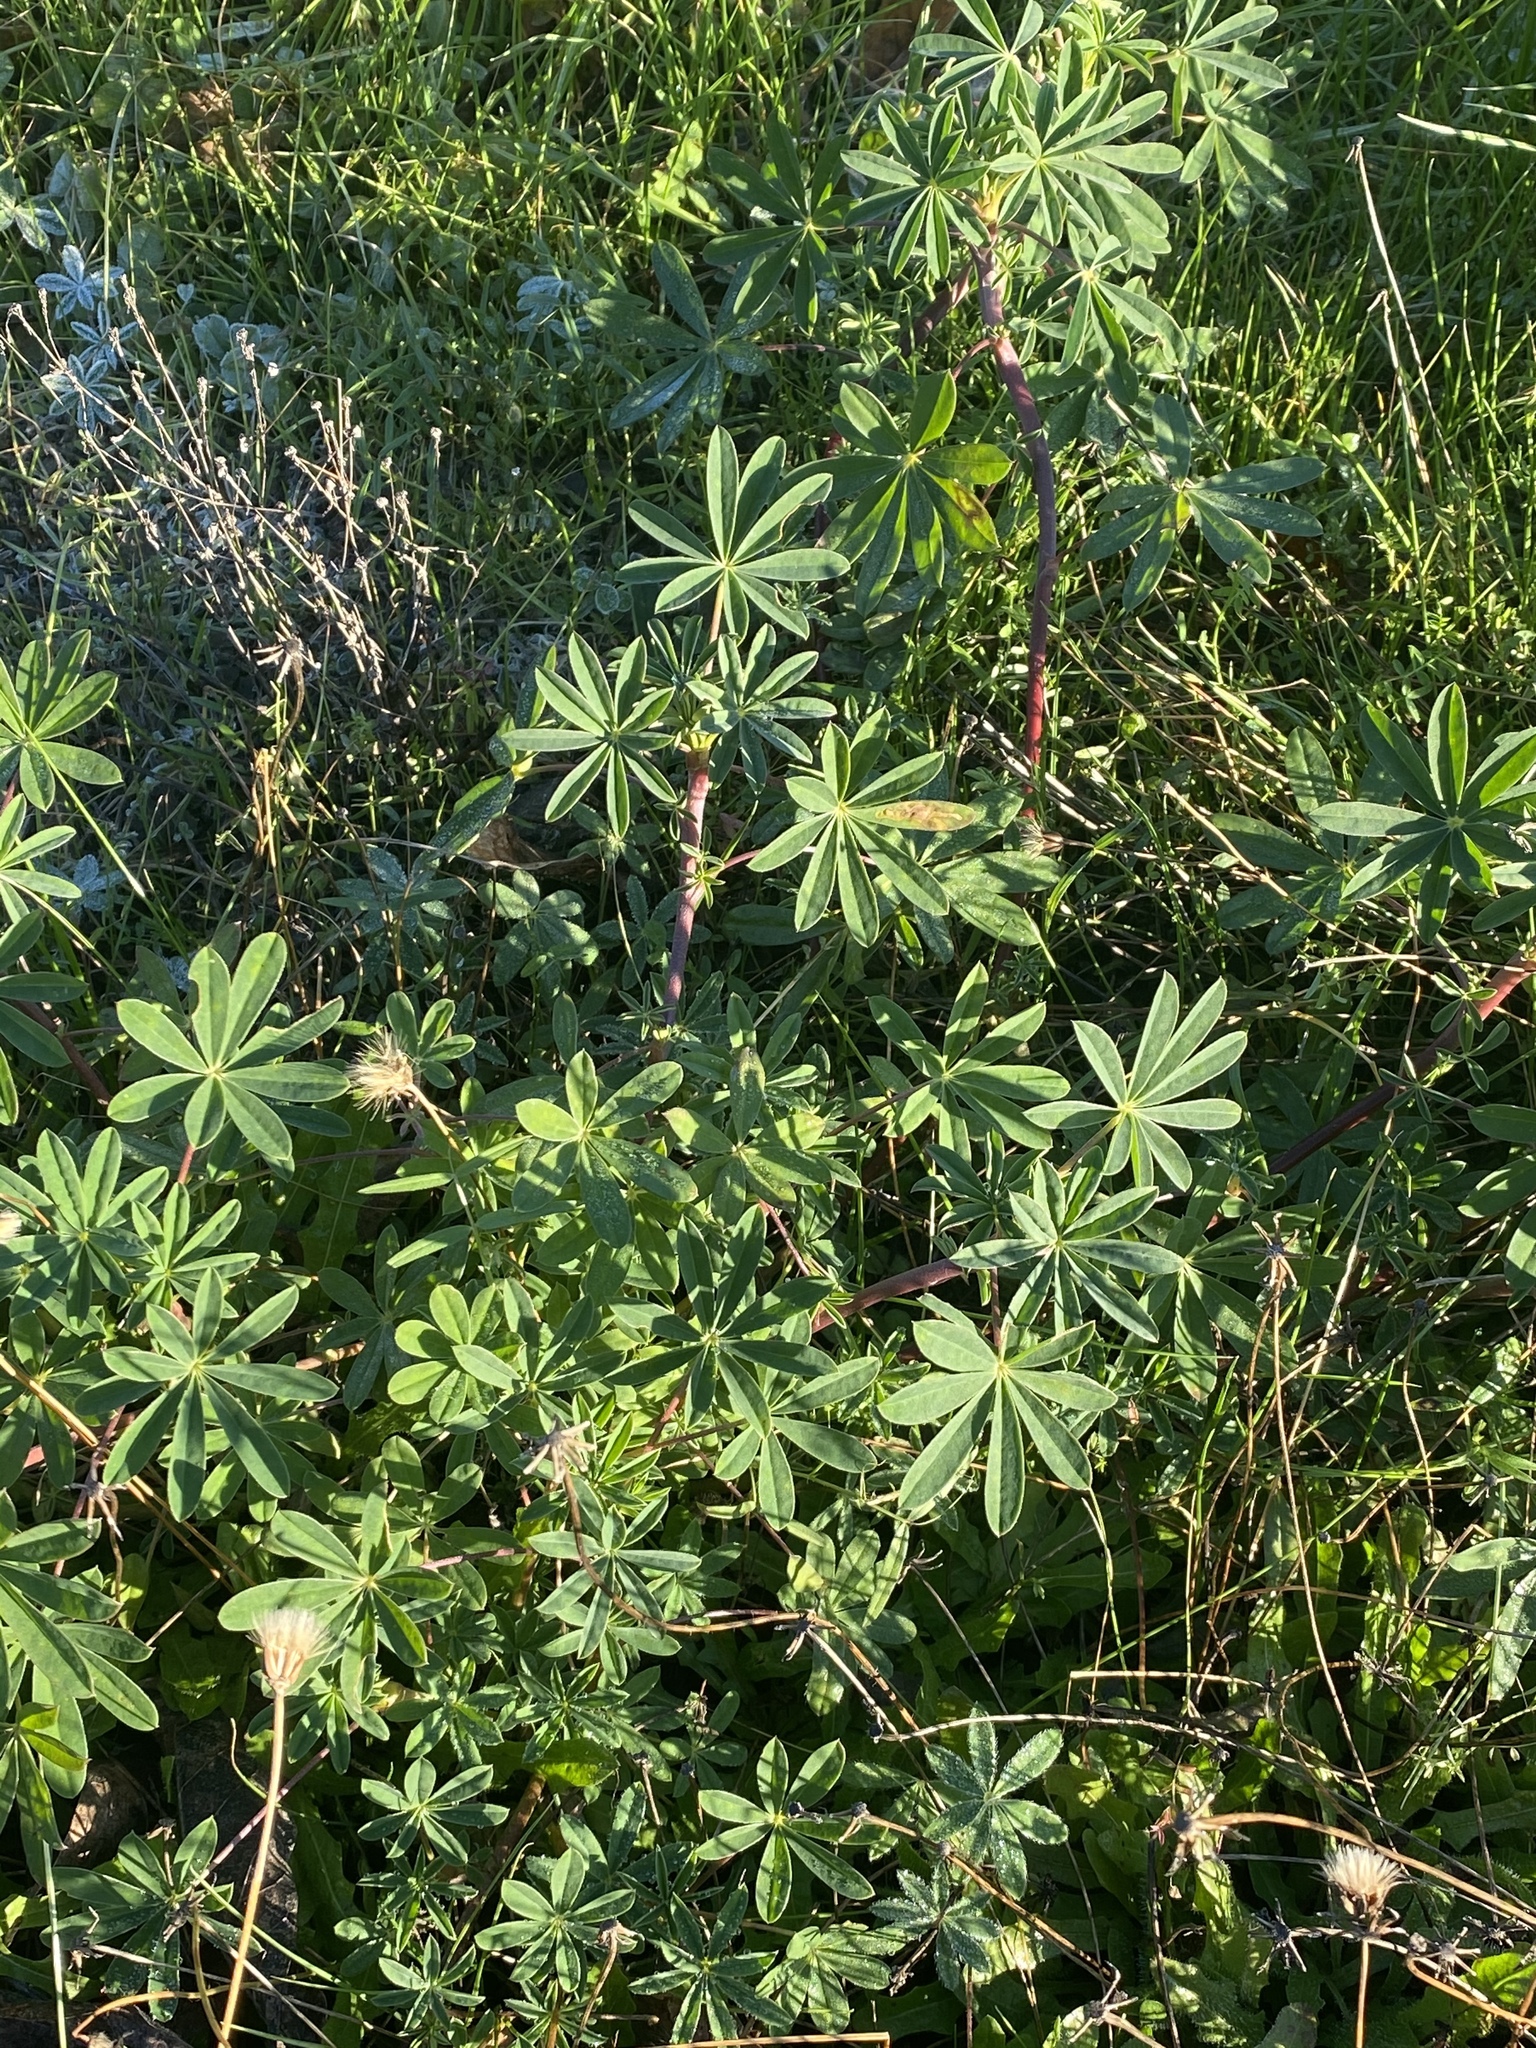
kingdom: Plantae
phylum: Tracheophyta
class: Magnoliopsida
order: Fabales
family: Fabaceae
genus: Lupinus
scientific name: Lupinus polyphyllus
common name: Garden lupin
